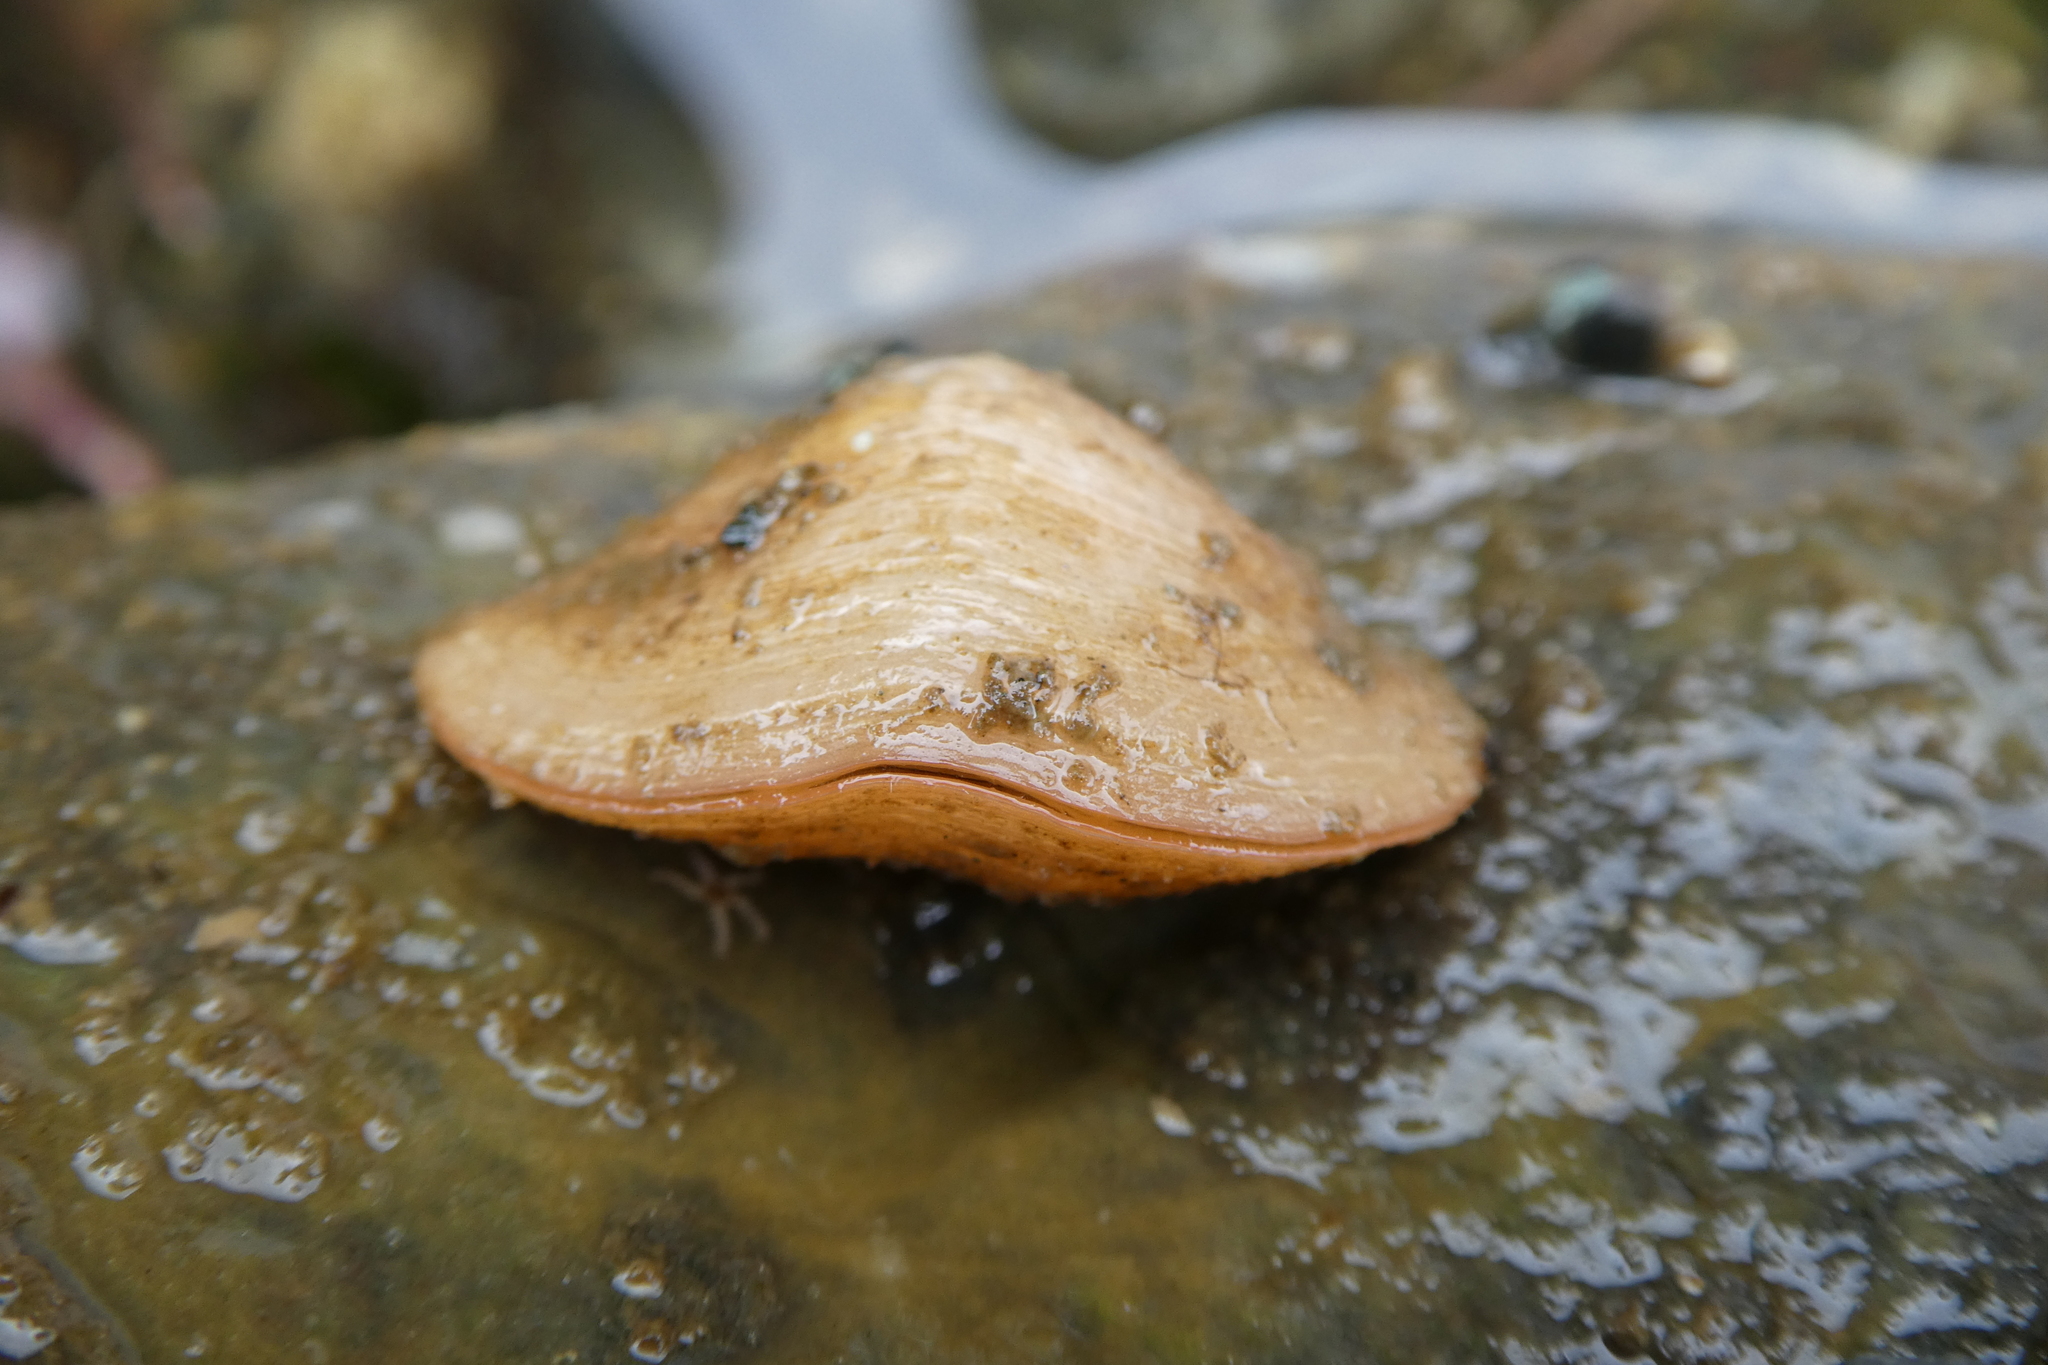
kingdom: Animalia
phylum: Brachiopoda
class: Rhynchonellata
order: Terebratulida
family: Terebrataliidae
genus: Terebratalia
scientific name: Terebratalia transversa
